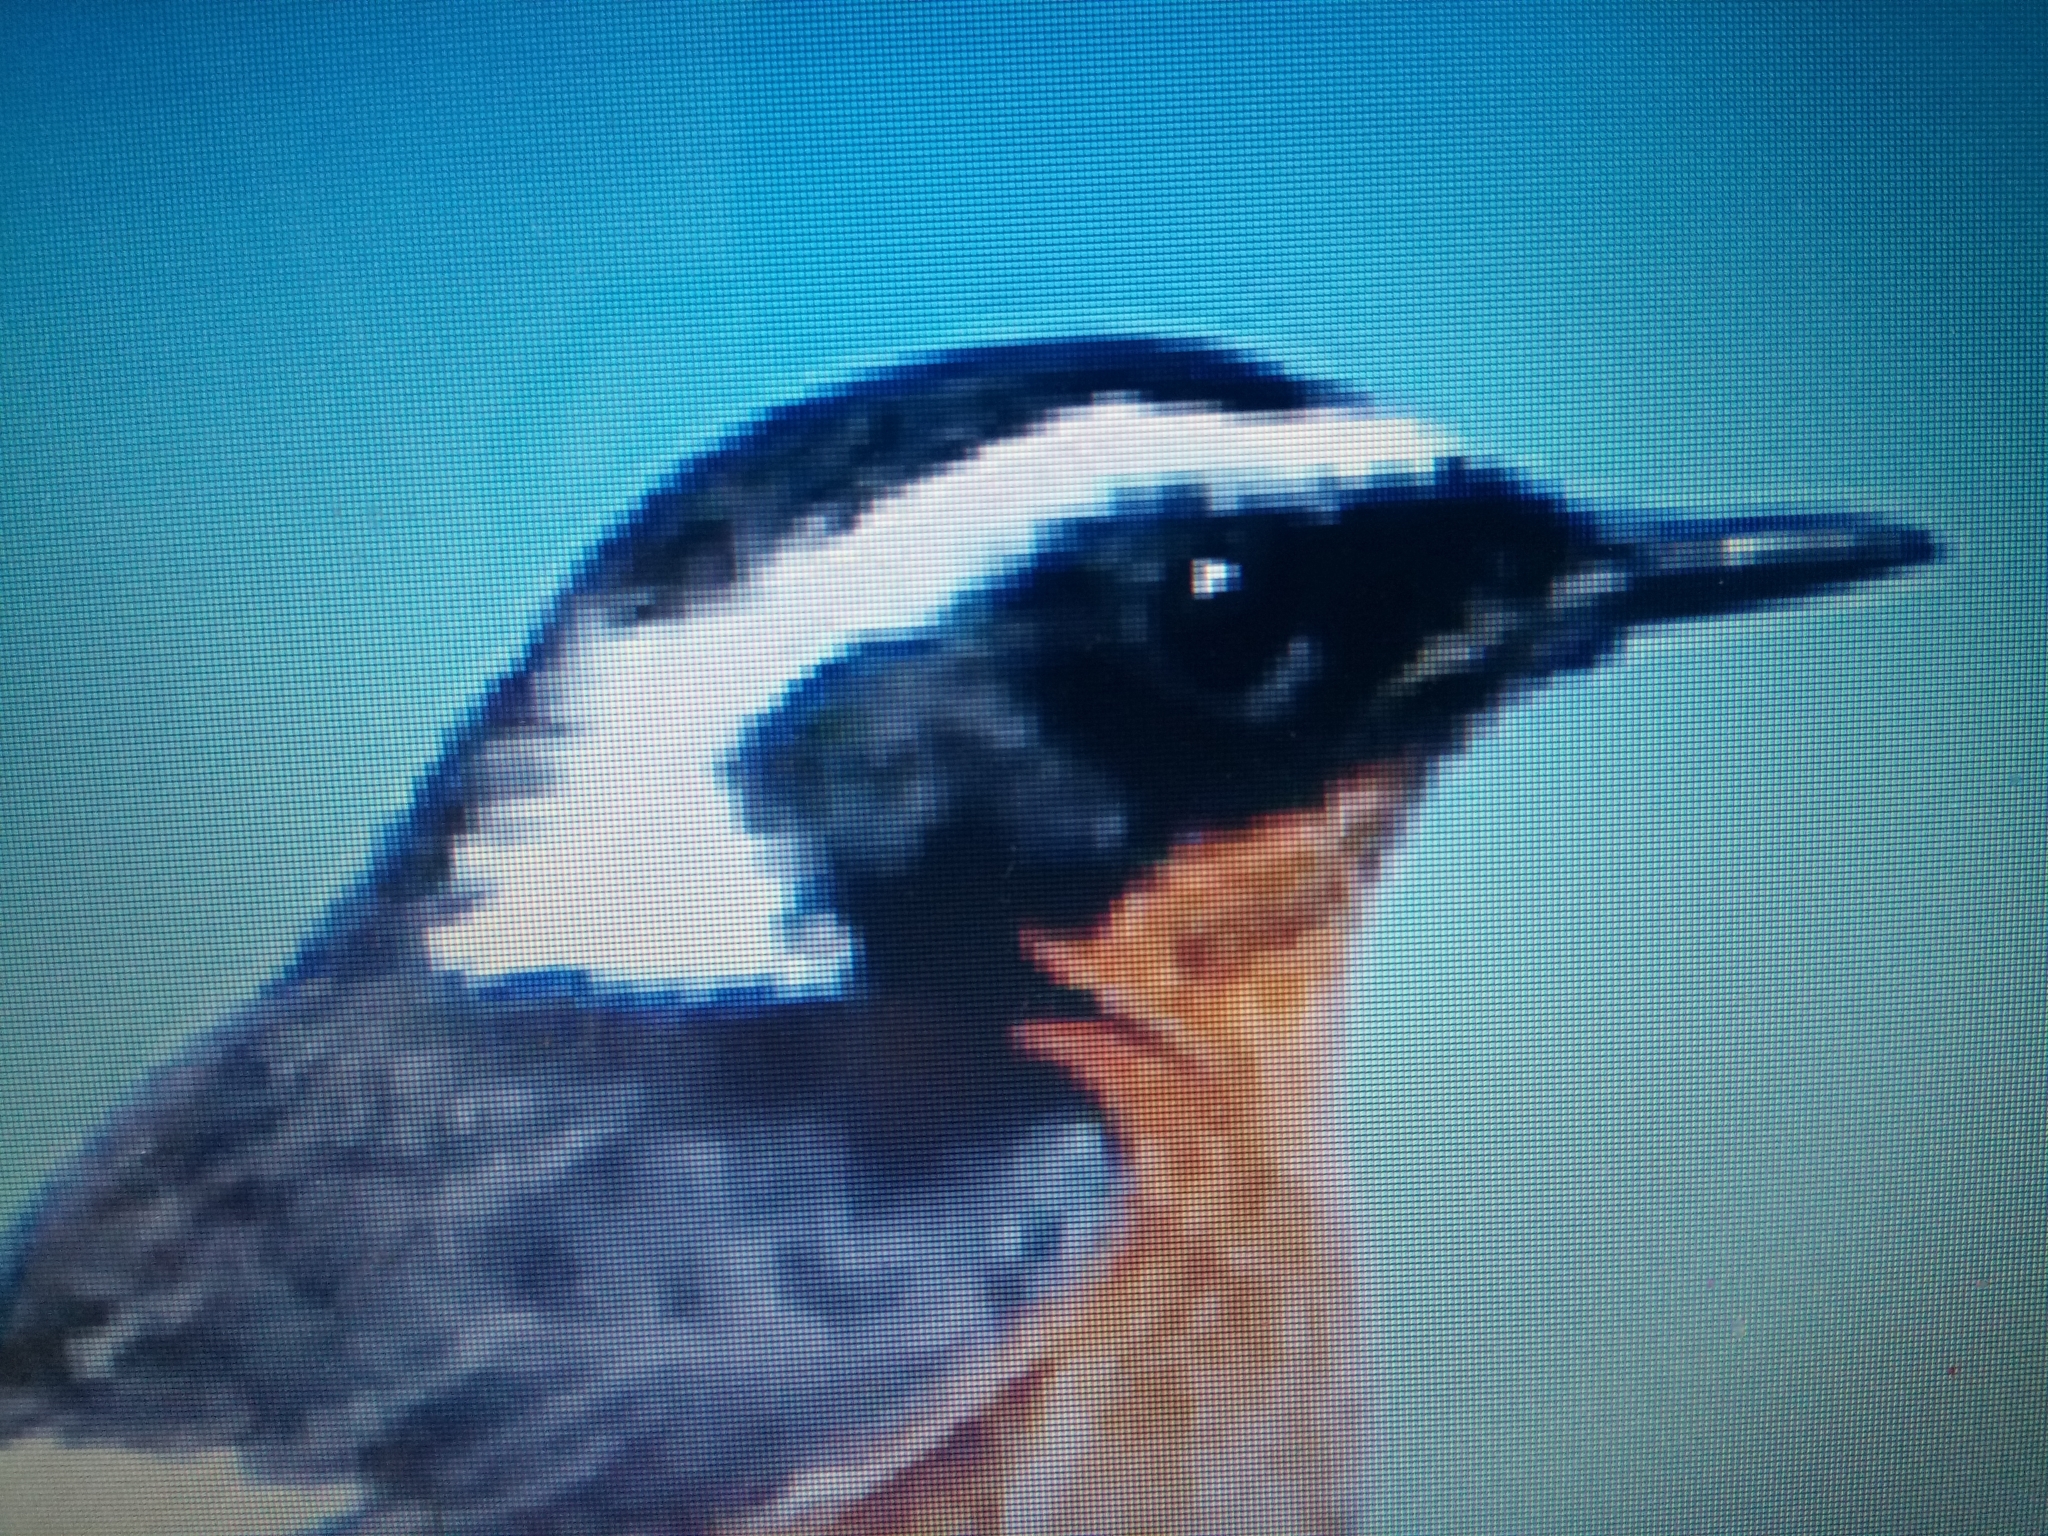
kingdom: Animalia
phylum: Chordata
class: Aves
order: Passeriformes
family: Muscicapidae
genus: Phoenicurus
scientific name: Phoenicurus moussieri
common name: Moussier's redstart
